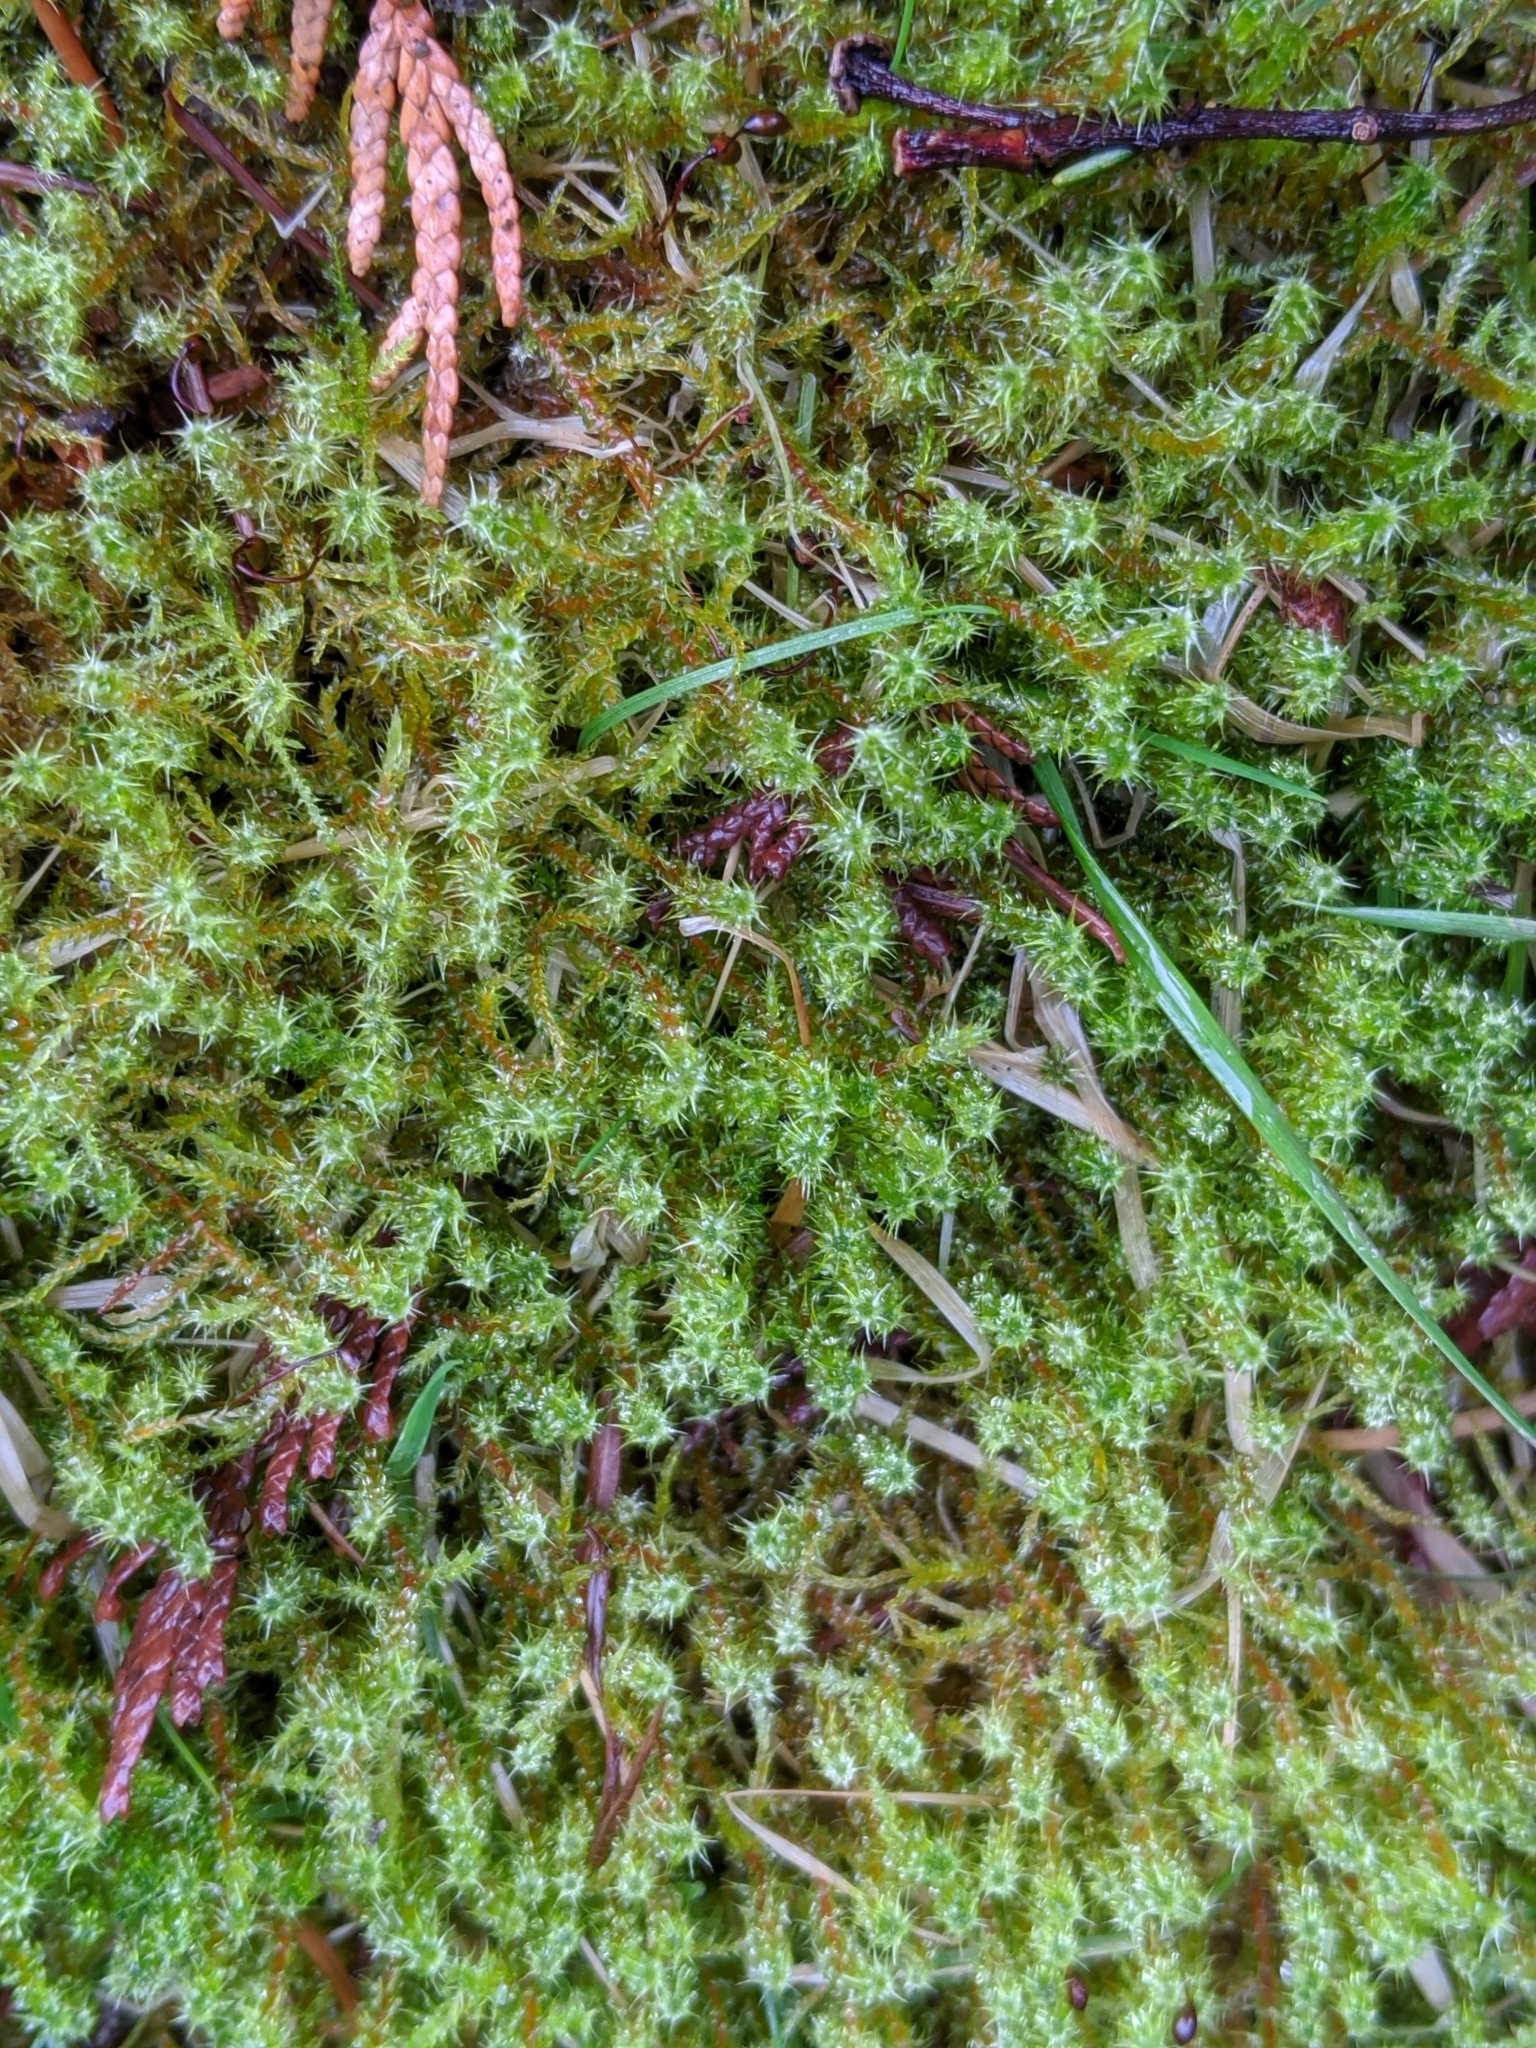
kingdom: Plantae
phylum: Bryophyta
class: Bryopsida
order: Hypnales
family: Hylocomiaceae
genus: Rhytidiadelphus
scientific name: Rhytidiadelphus squarrosus
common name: Springy turf-moss
